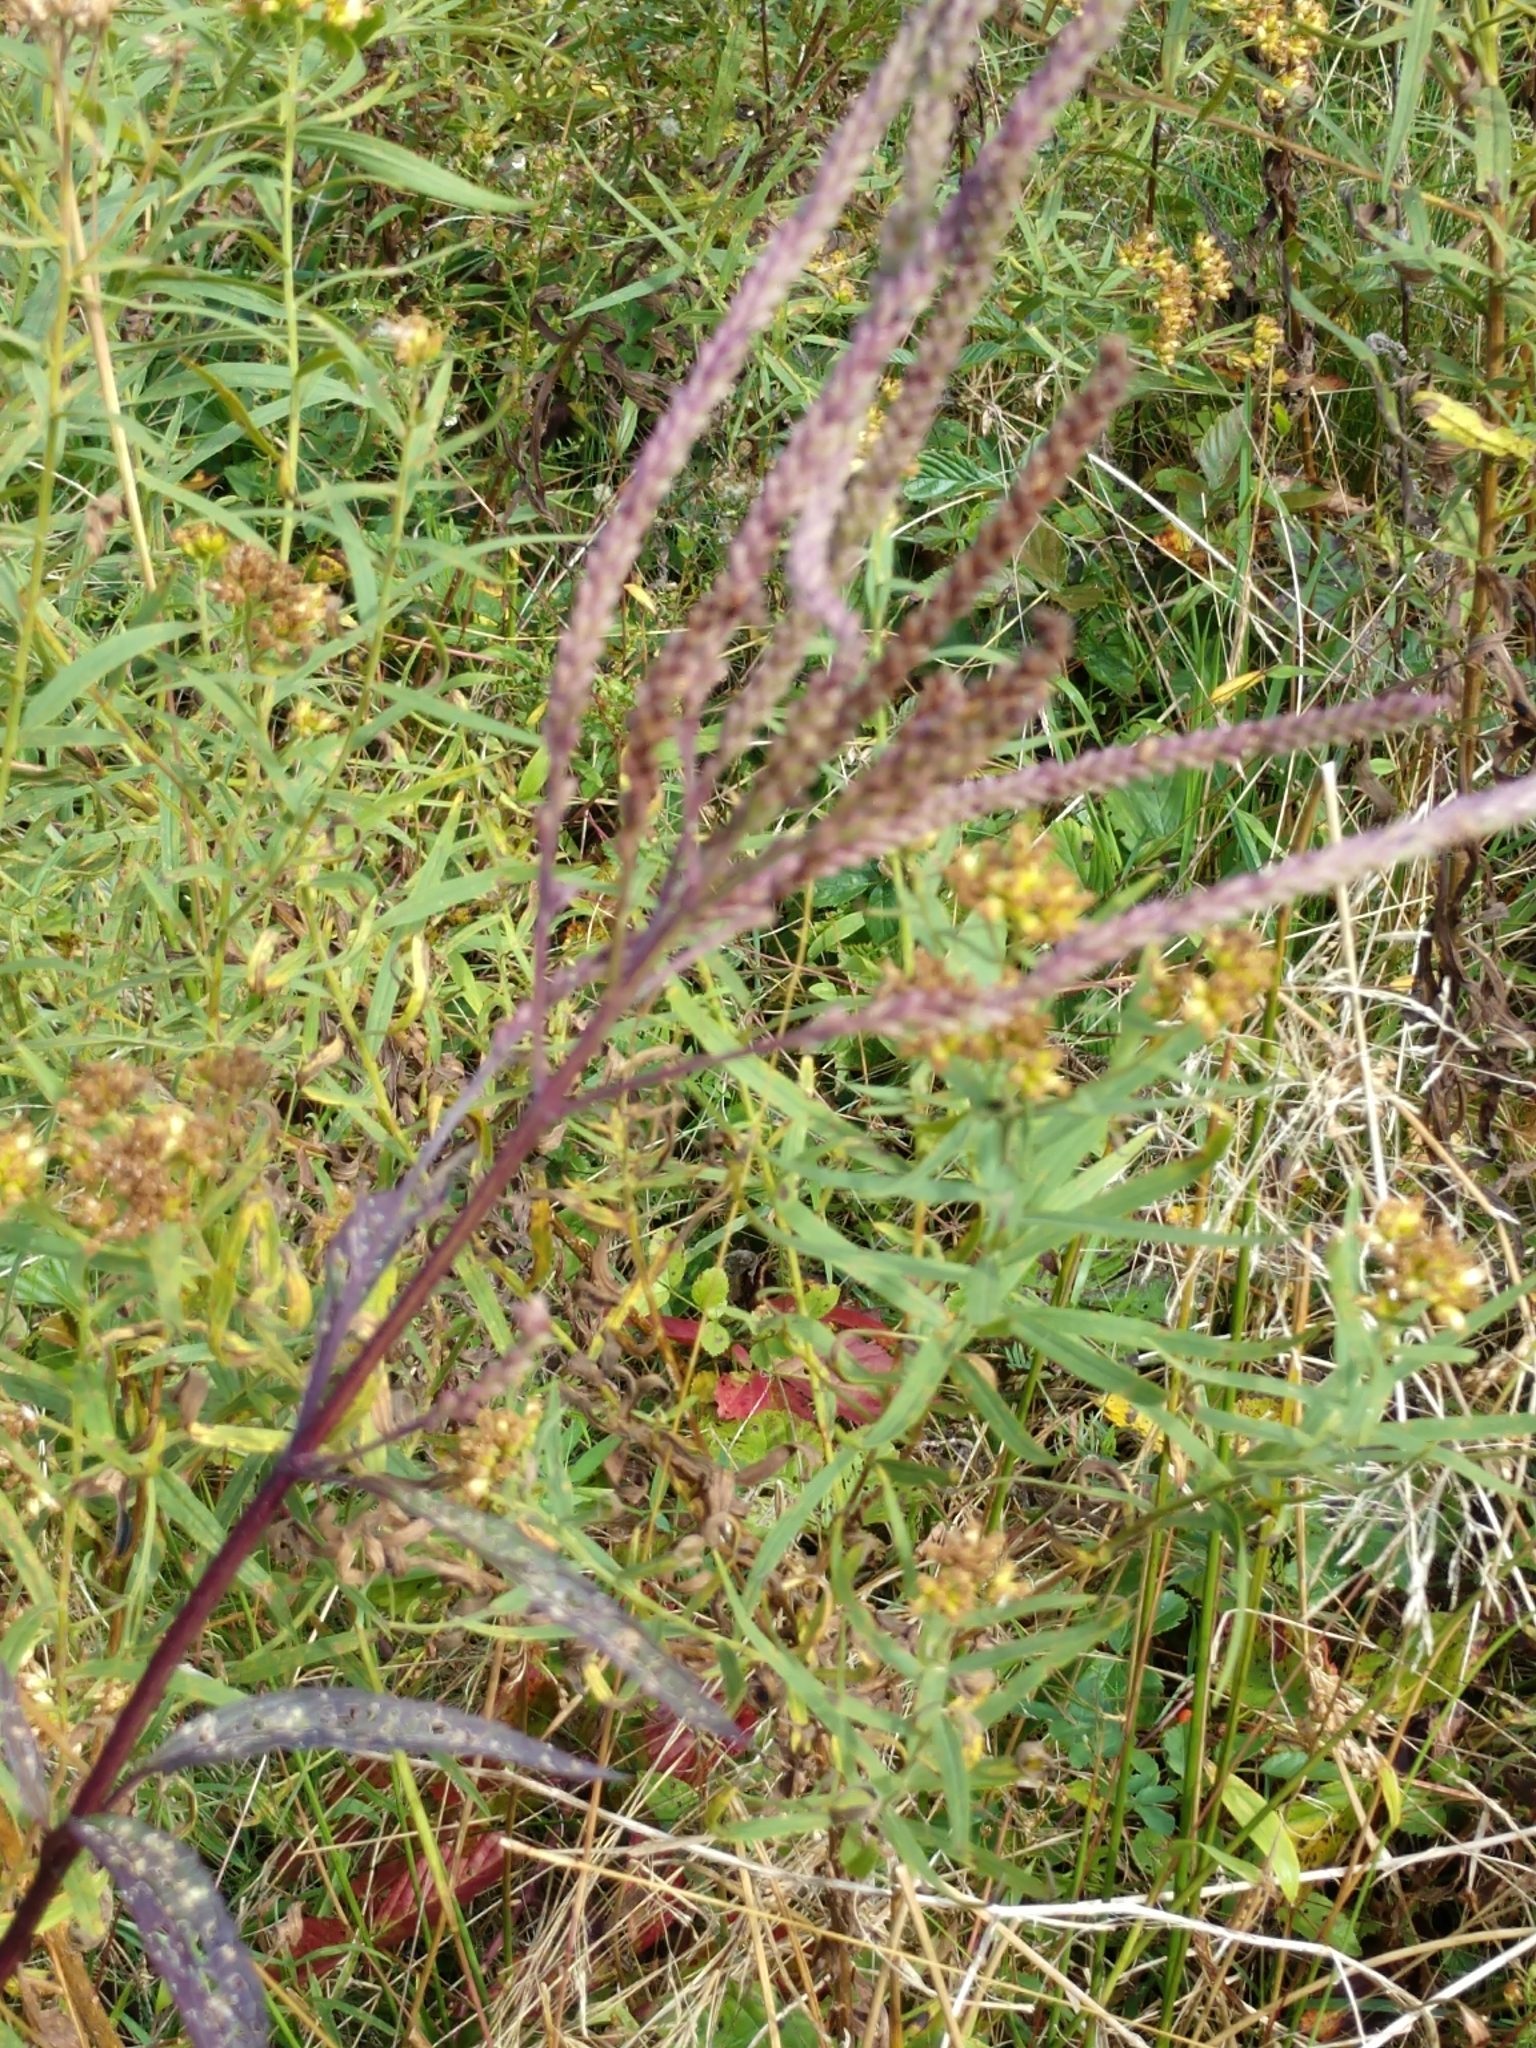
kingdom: Plantae
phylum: Tracheophyta
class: Magnoliopsida
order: Lamiales
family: Verbenaceae
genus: Verbena
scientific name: Verbena hastata
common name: American blue vervain
